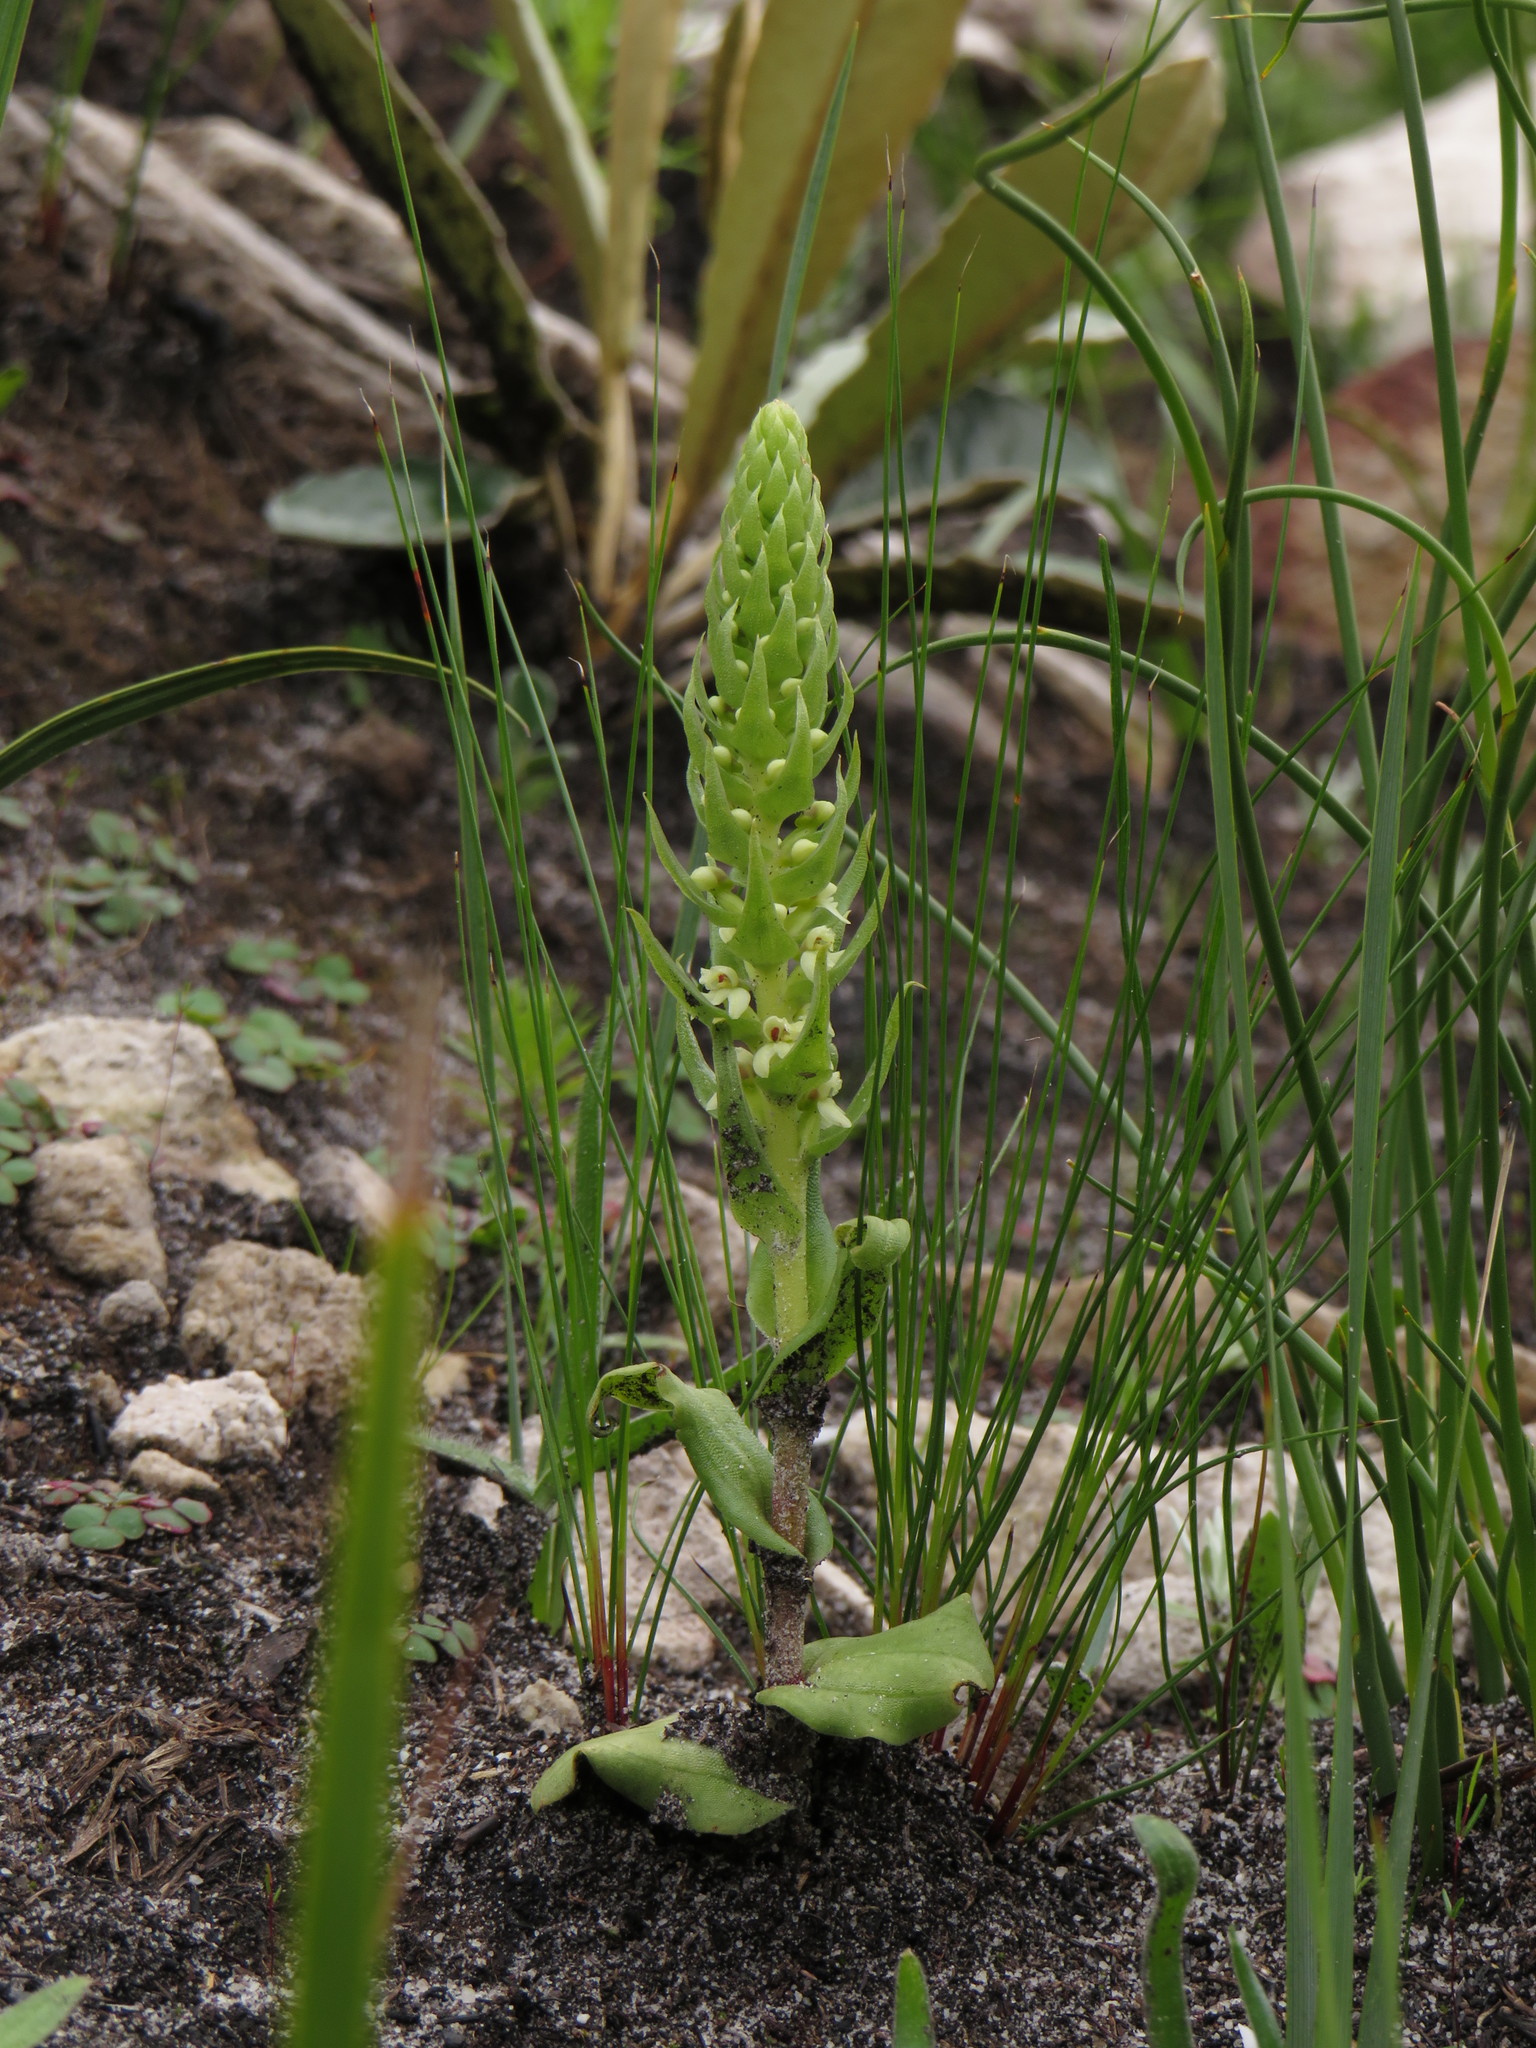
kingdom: Plantae
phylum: Tracheophyta
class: Liliopsida
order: Asparagales
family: Orchidaceae
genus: Satyrium
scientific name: Satyrium bicallosum
